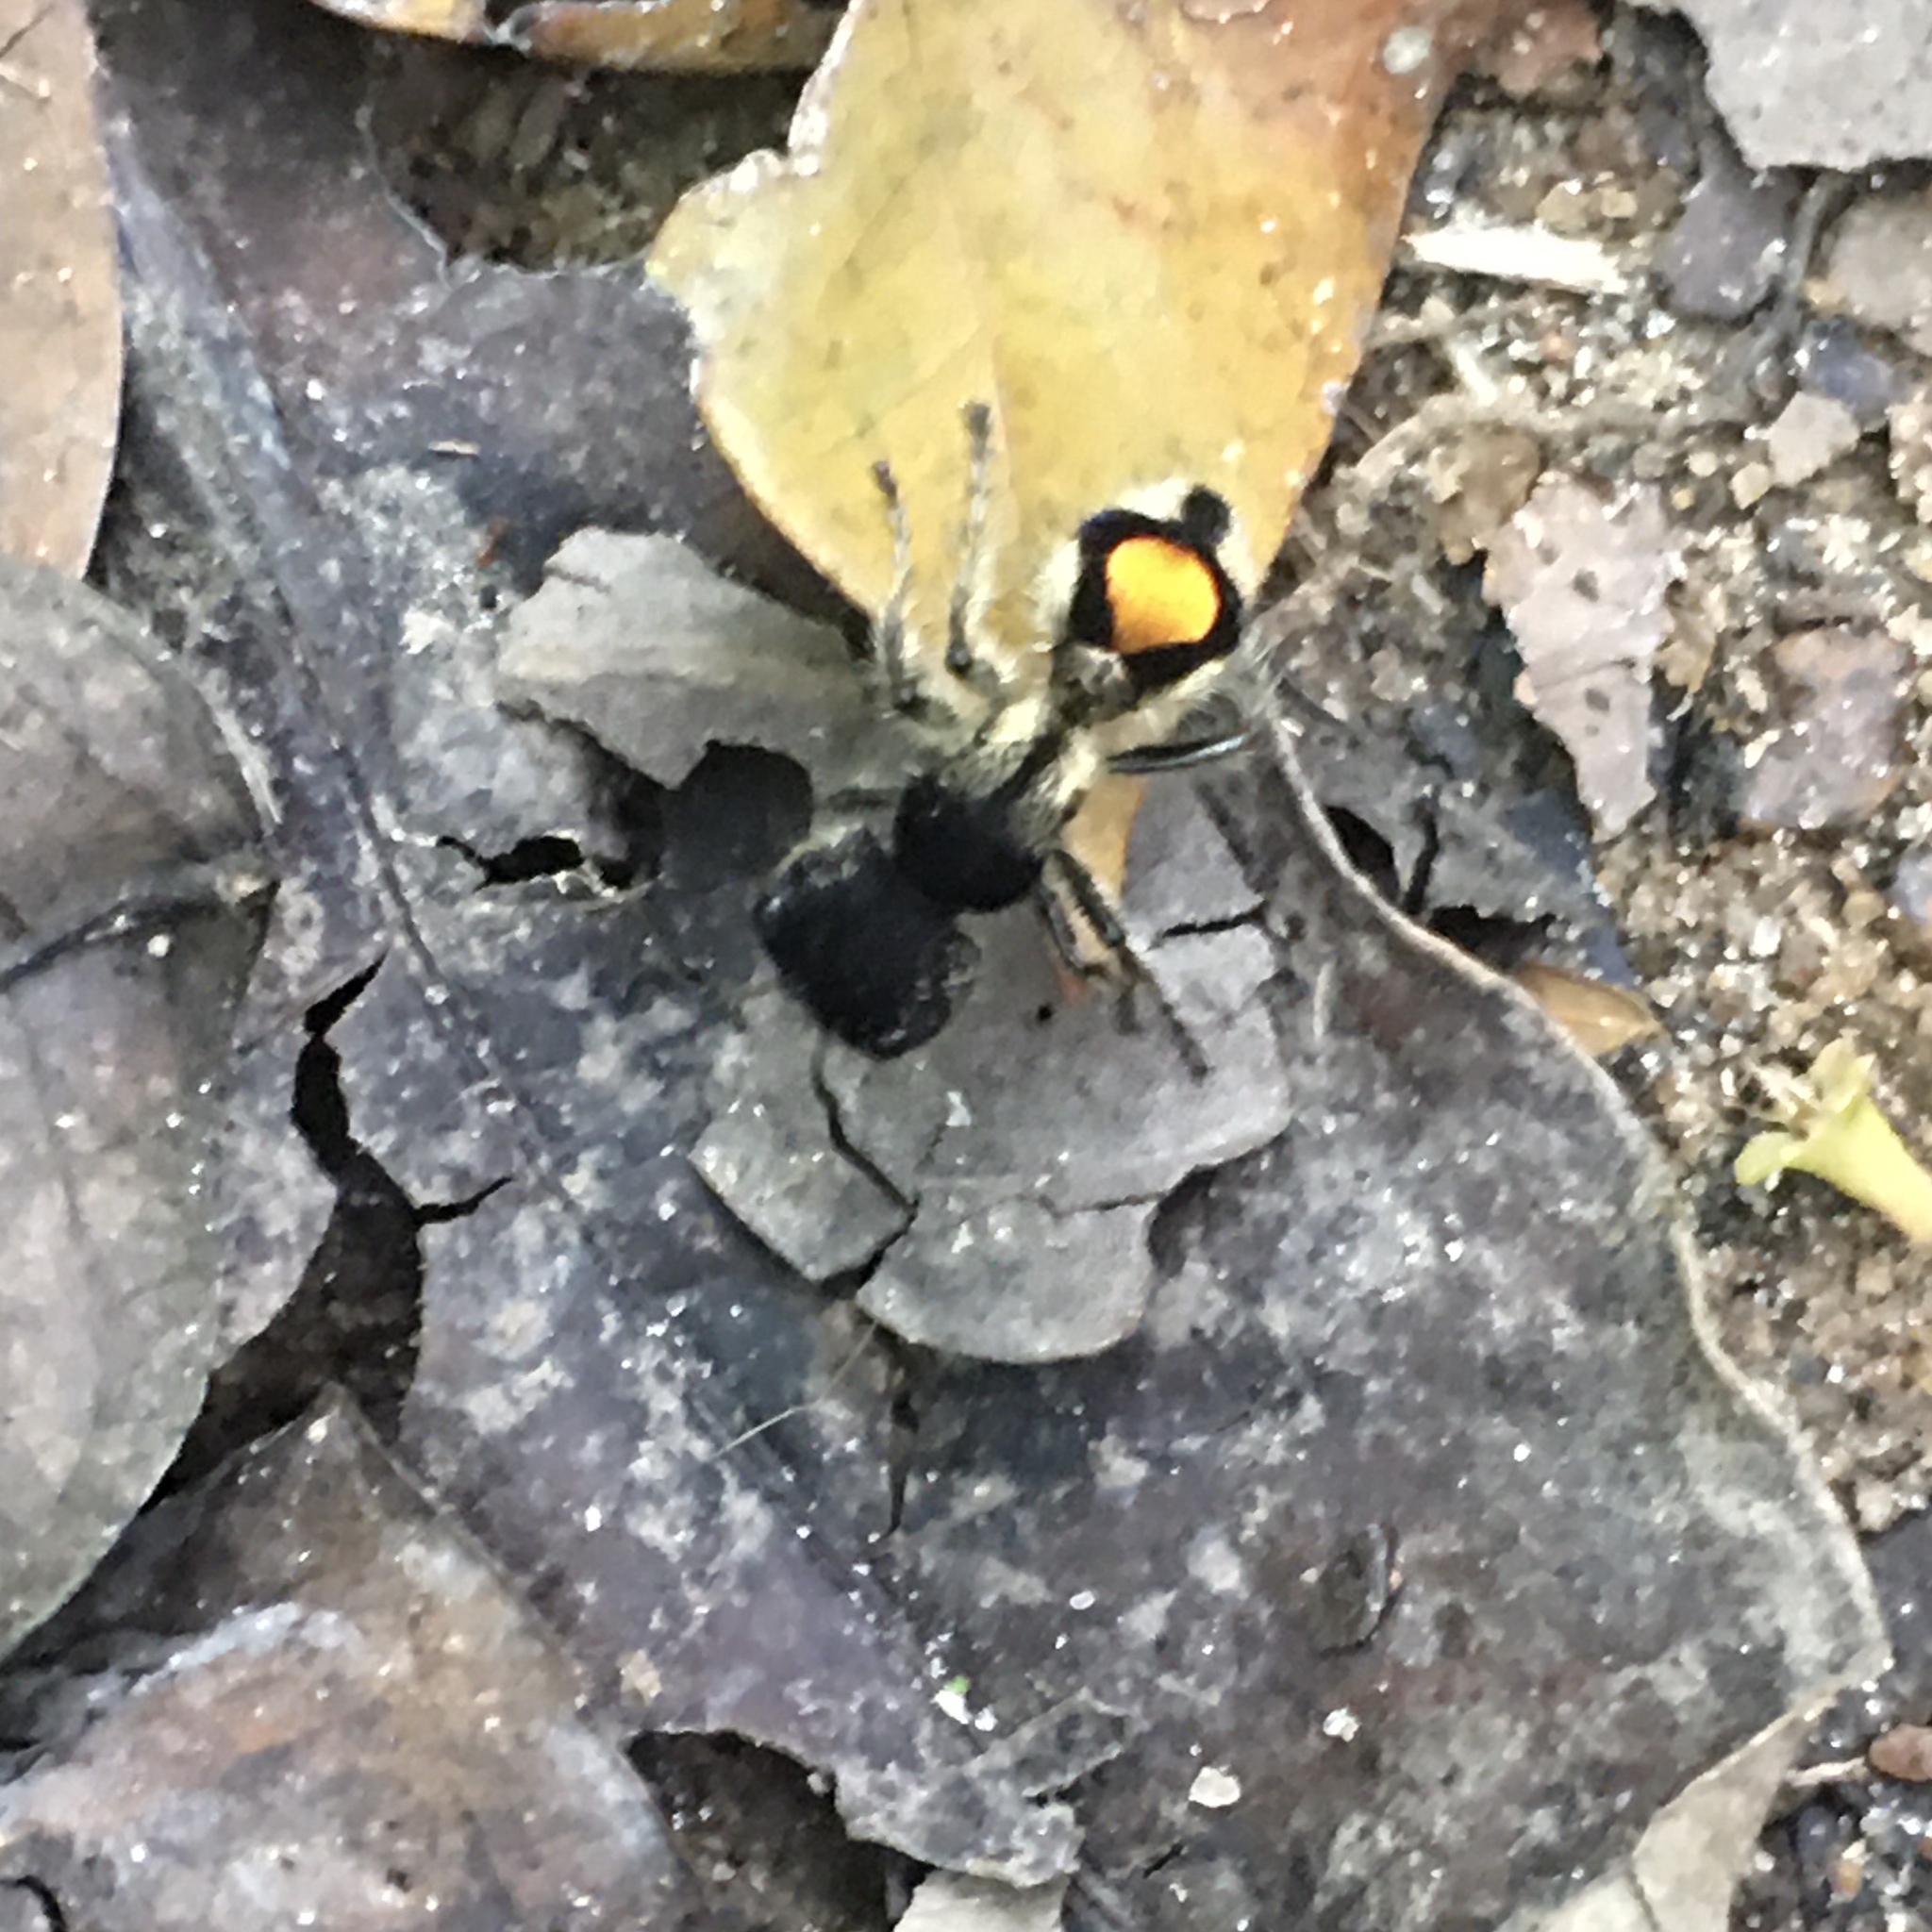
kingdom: Animalia
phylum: Arthropoda
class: Insecta
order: Hymenoptera
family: Mutillidae
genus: Hoplocrates
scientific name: Hoplocrates
